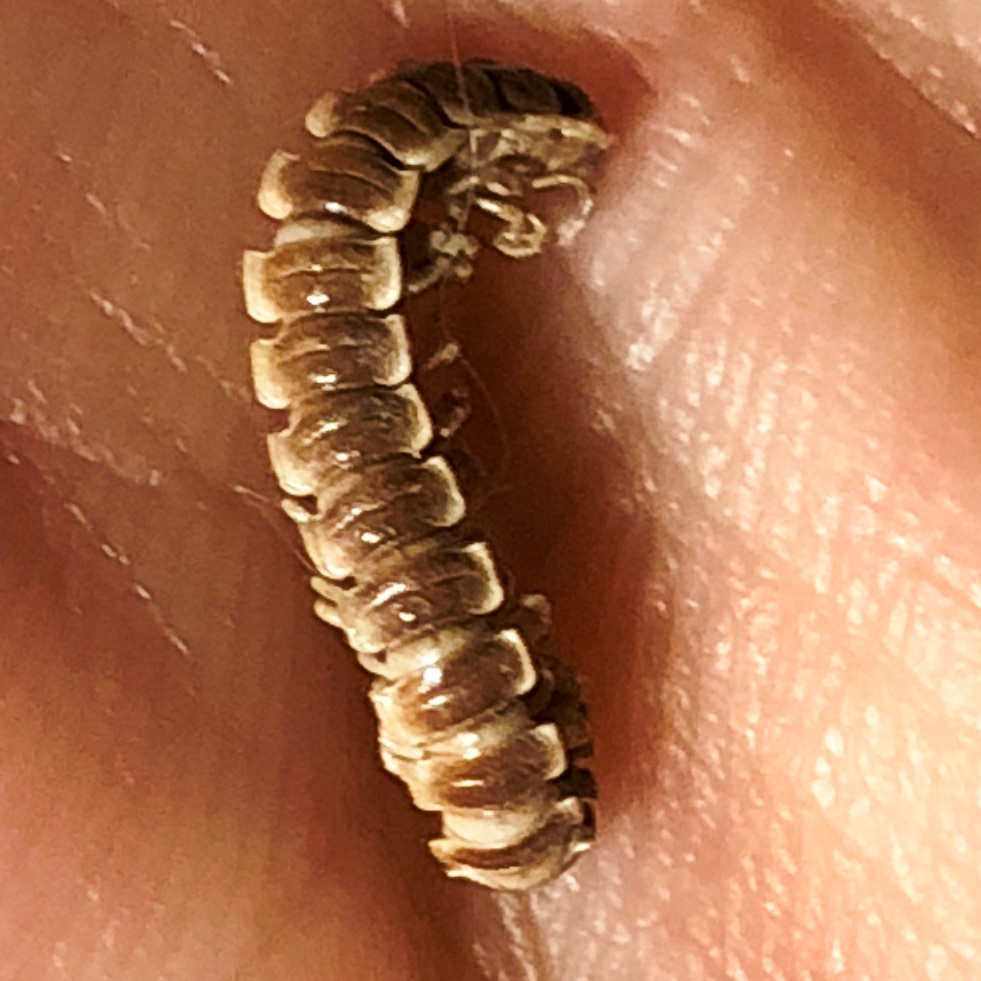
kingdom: Animalia
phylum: Arthropoda
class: Diplopoda
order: Polydesmida
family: Paradoxosomatidae
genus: Oxidus
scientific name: Oxidus gracilis
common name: Greenhouse millipede
